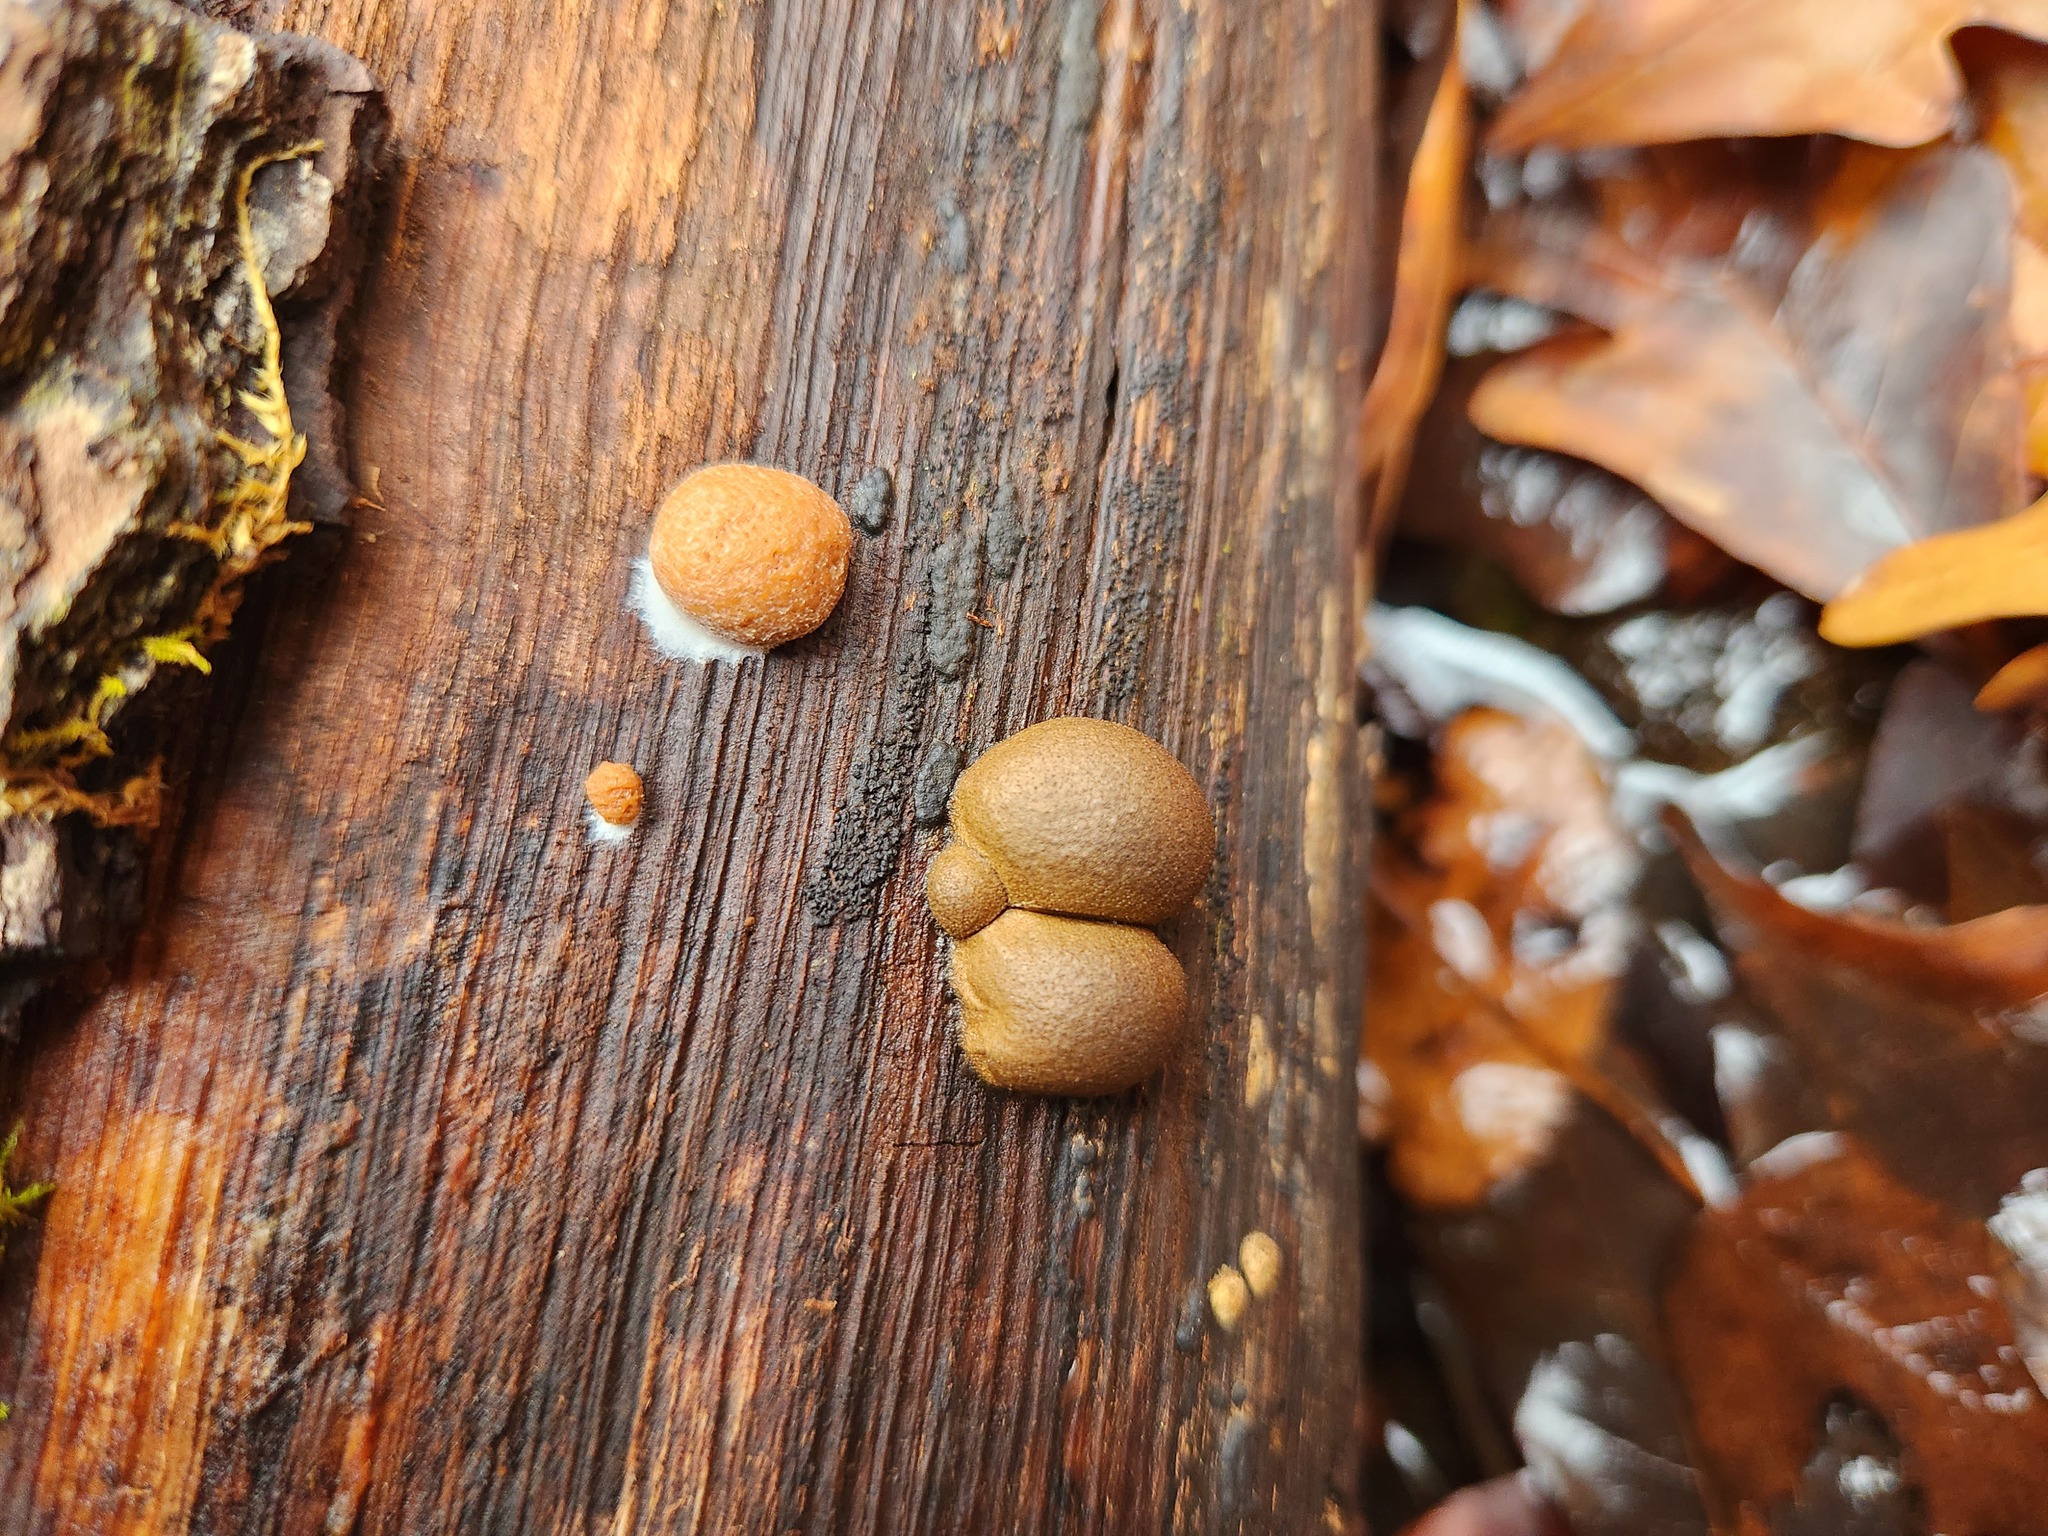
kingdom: Protozoa
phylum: Mycetozoa
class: Myxomycetes
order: Cribrariales
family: Tubiferaceae
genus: Lycogala
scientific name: Lycogala epidendrum
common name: Wolf's milk
